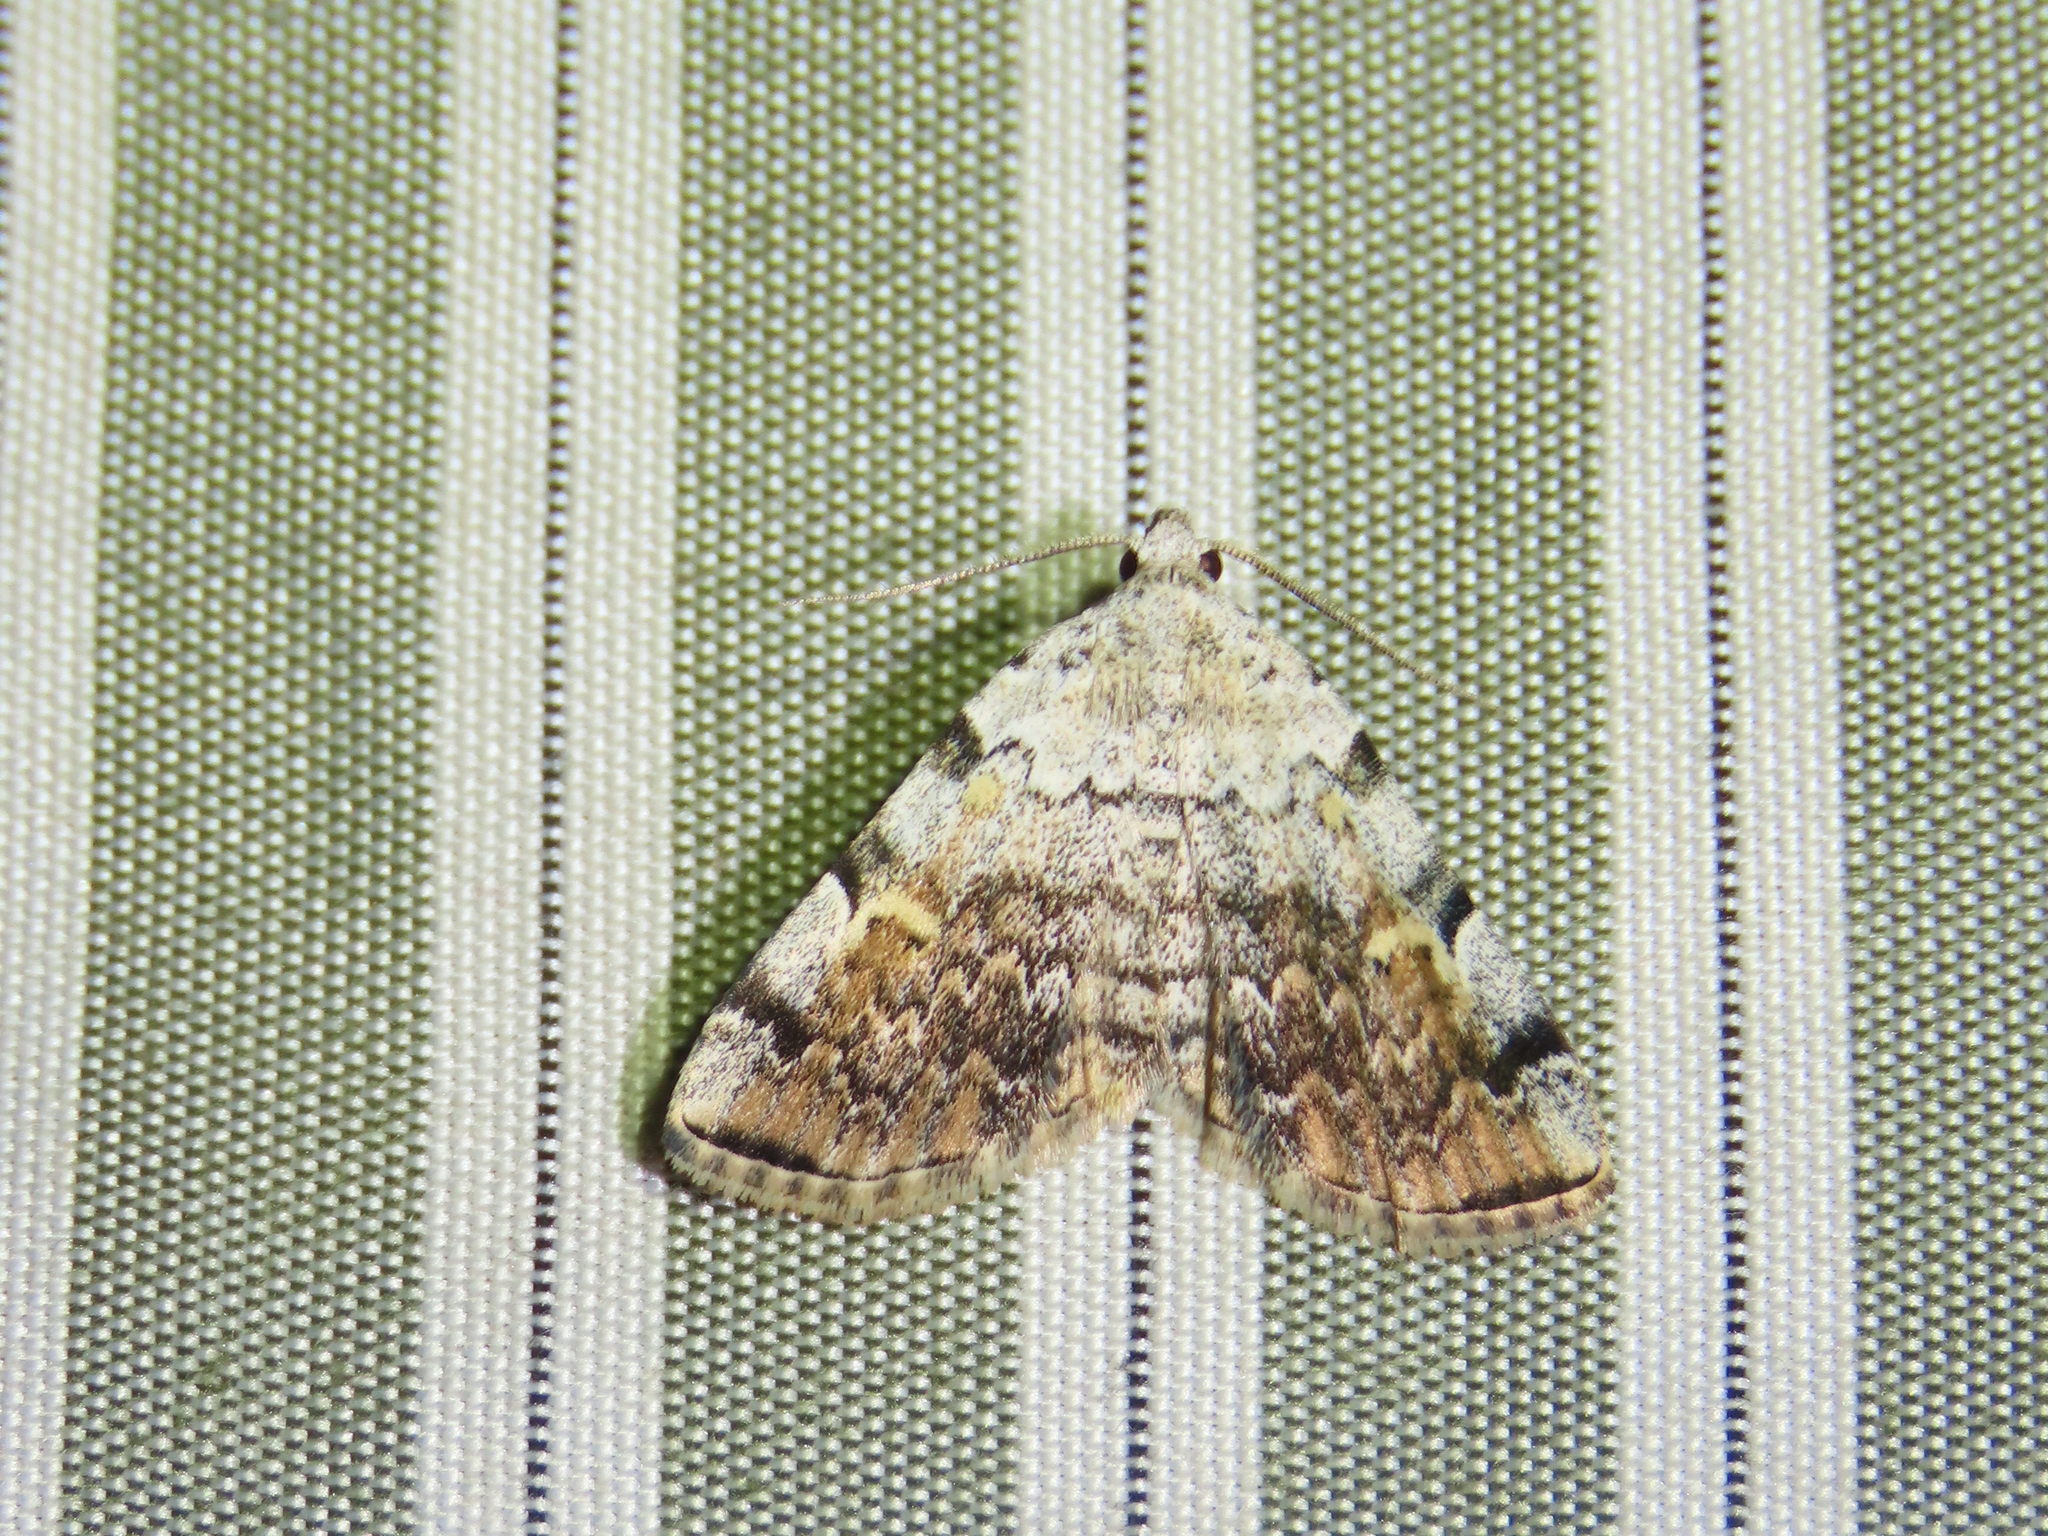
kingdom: Animalia
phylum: Arthropoda
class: Insecta
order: Lepidoptera
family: Erebidae
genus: Idia
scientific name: Idia americalis
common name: American idia moth
